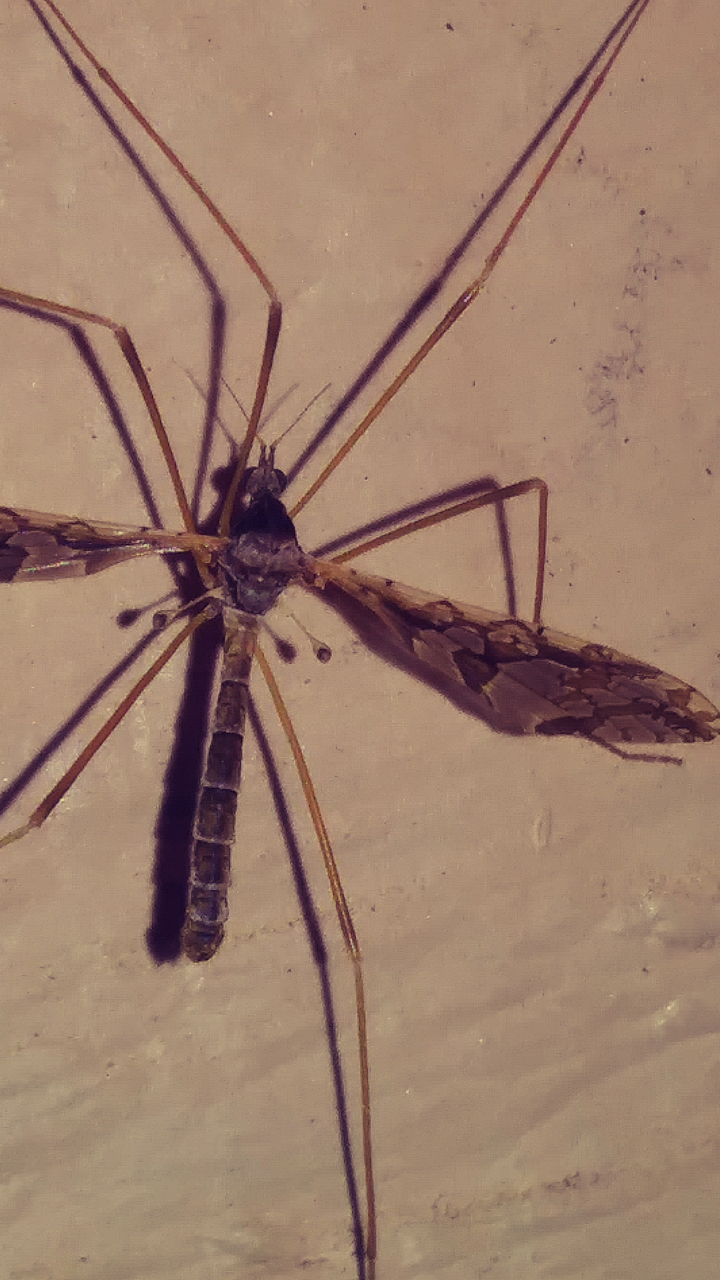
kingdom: Animalia
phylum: Arthropoda
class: Insecta
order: Diptera
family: Limoniidae
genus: Epiphragma
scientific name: Epiphragma solatrix
